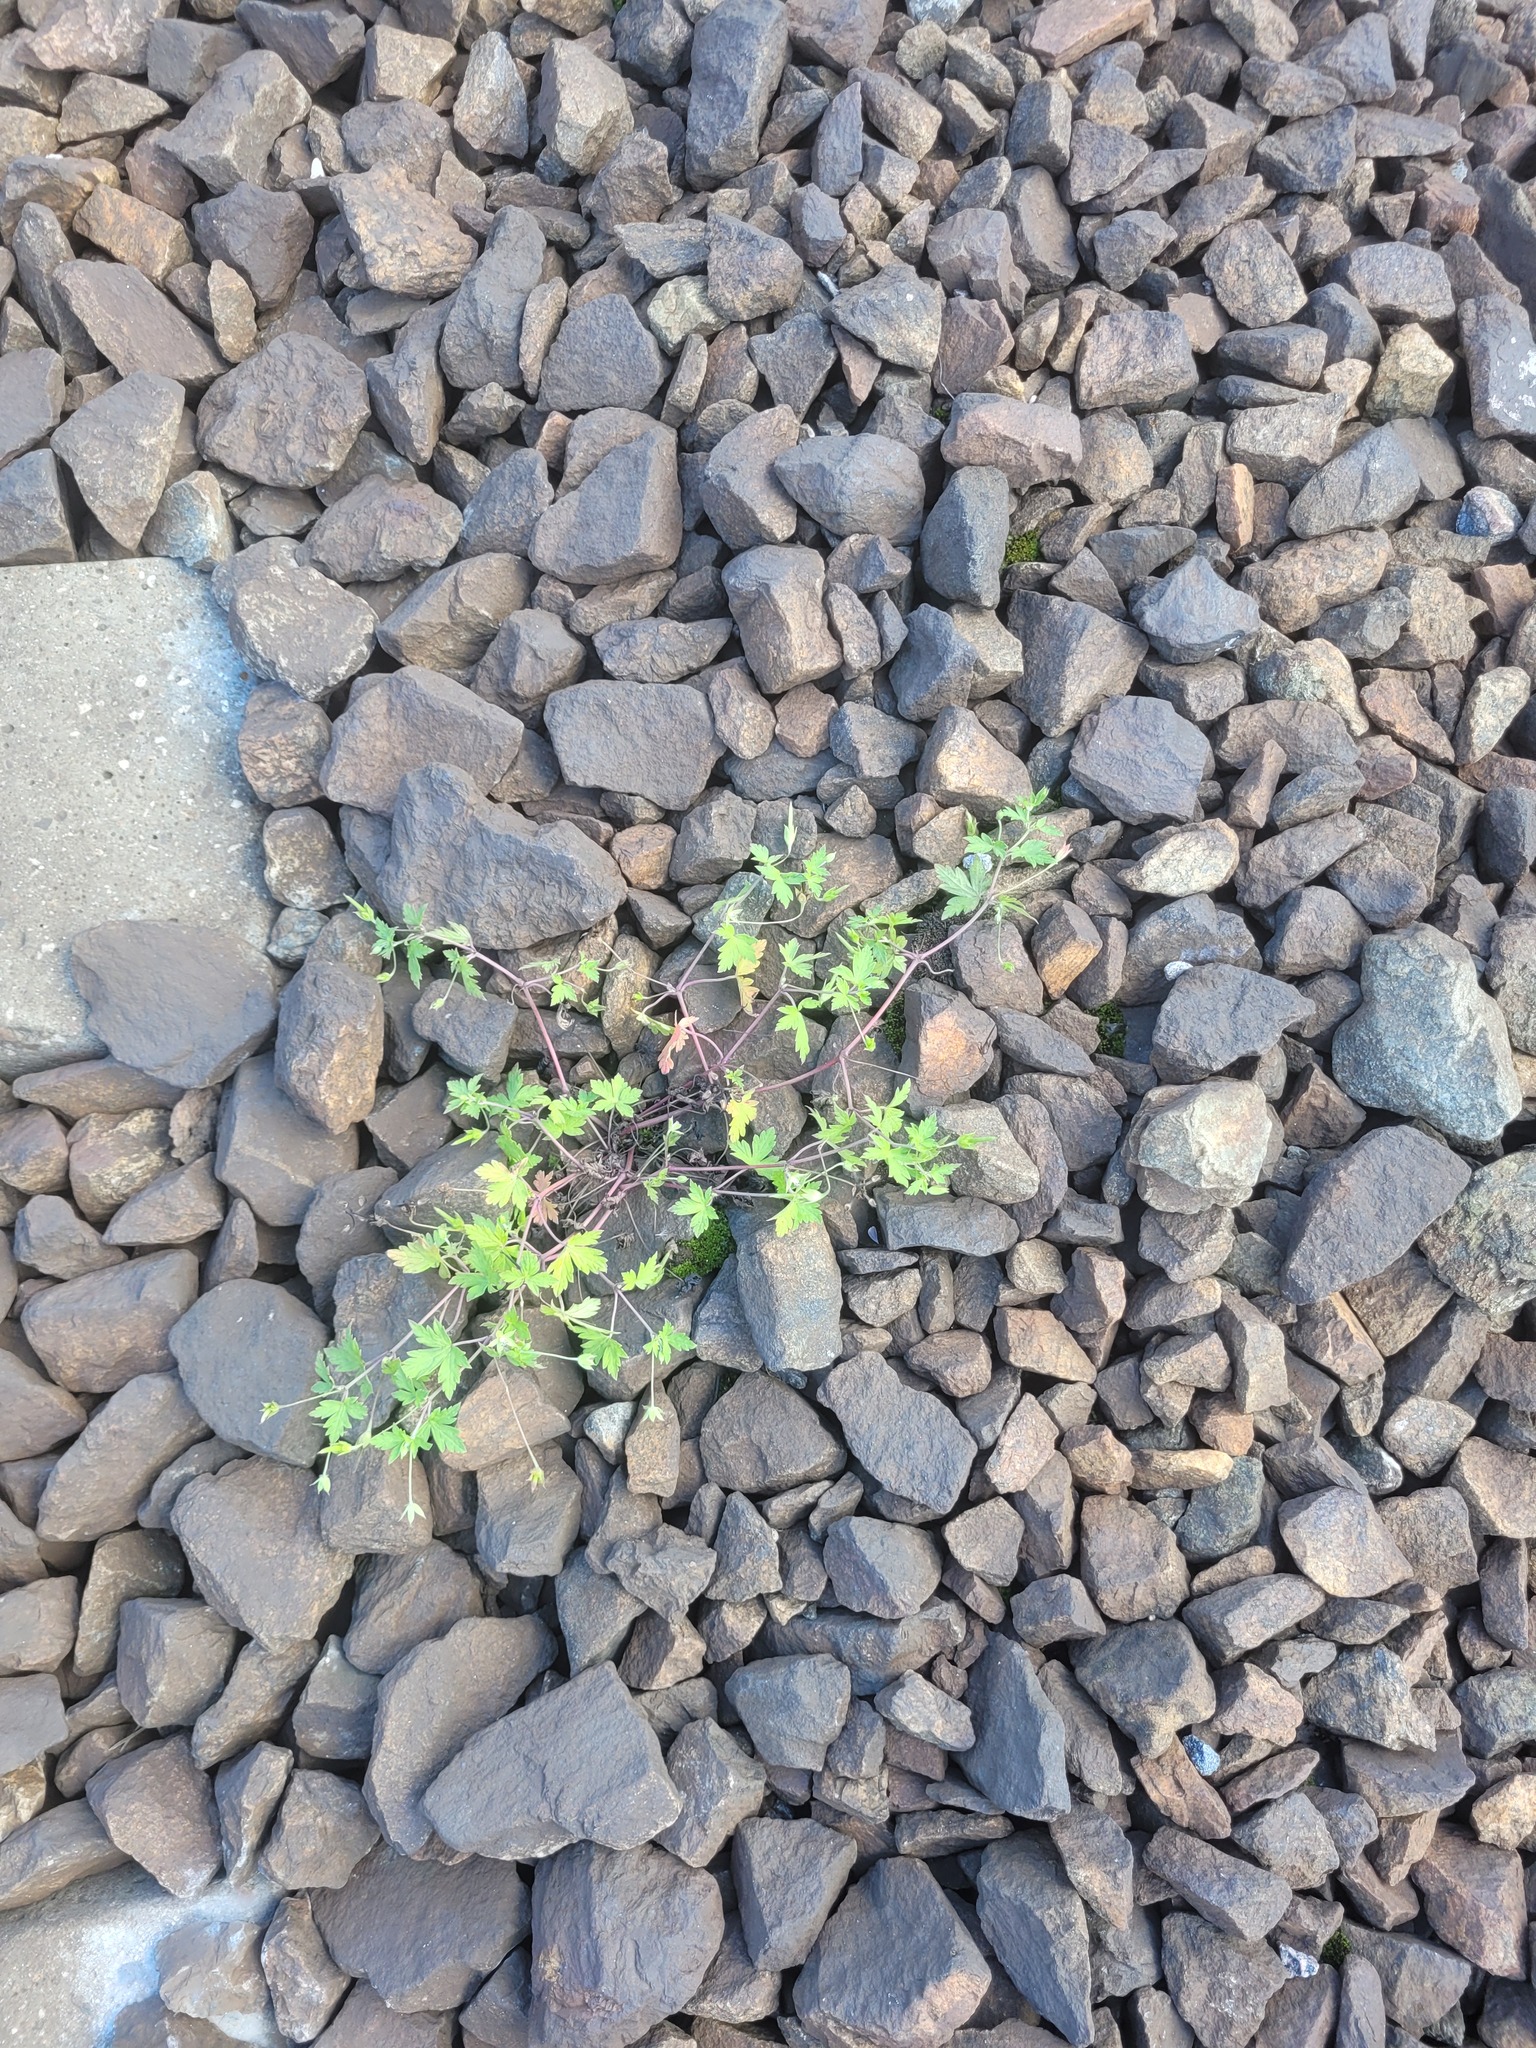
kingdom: Plantae
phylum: Tracheophyta
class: Magnoliopsida
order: Geraniales
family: Geraniaceae
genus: Geranium
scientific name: Geranium sibiricum
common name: Siberian crane's-bill
